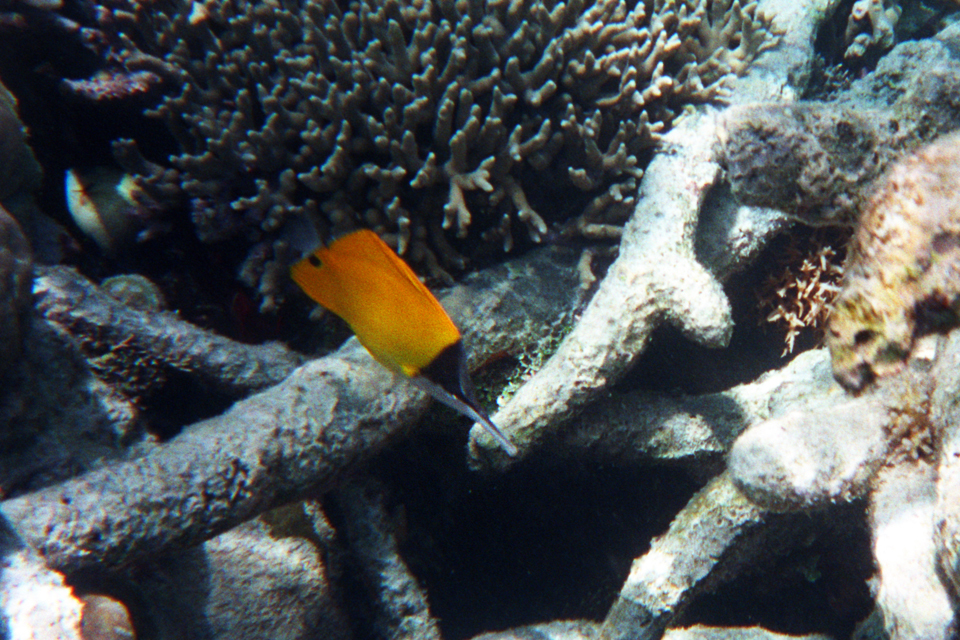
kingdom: Animalia
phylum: Chordata
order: Perciformes
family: Chaetodontidae
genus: Forcipiger
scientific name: Forcipiger flavissimus
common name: Forcepsfish
